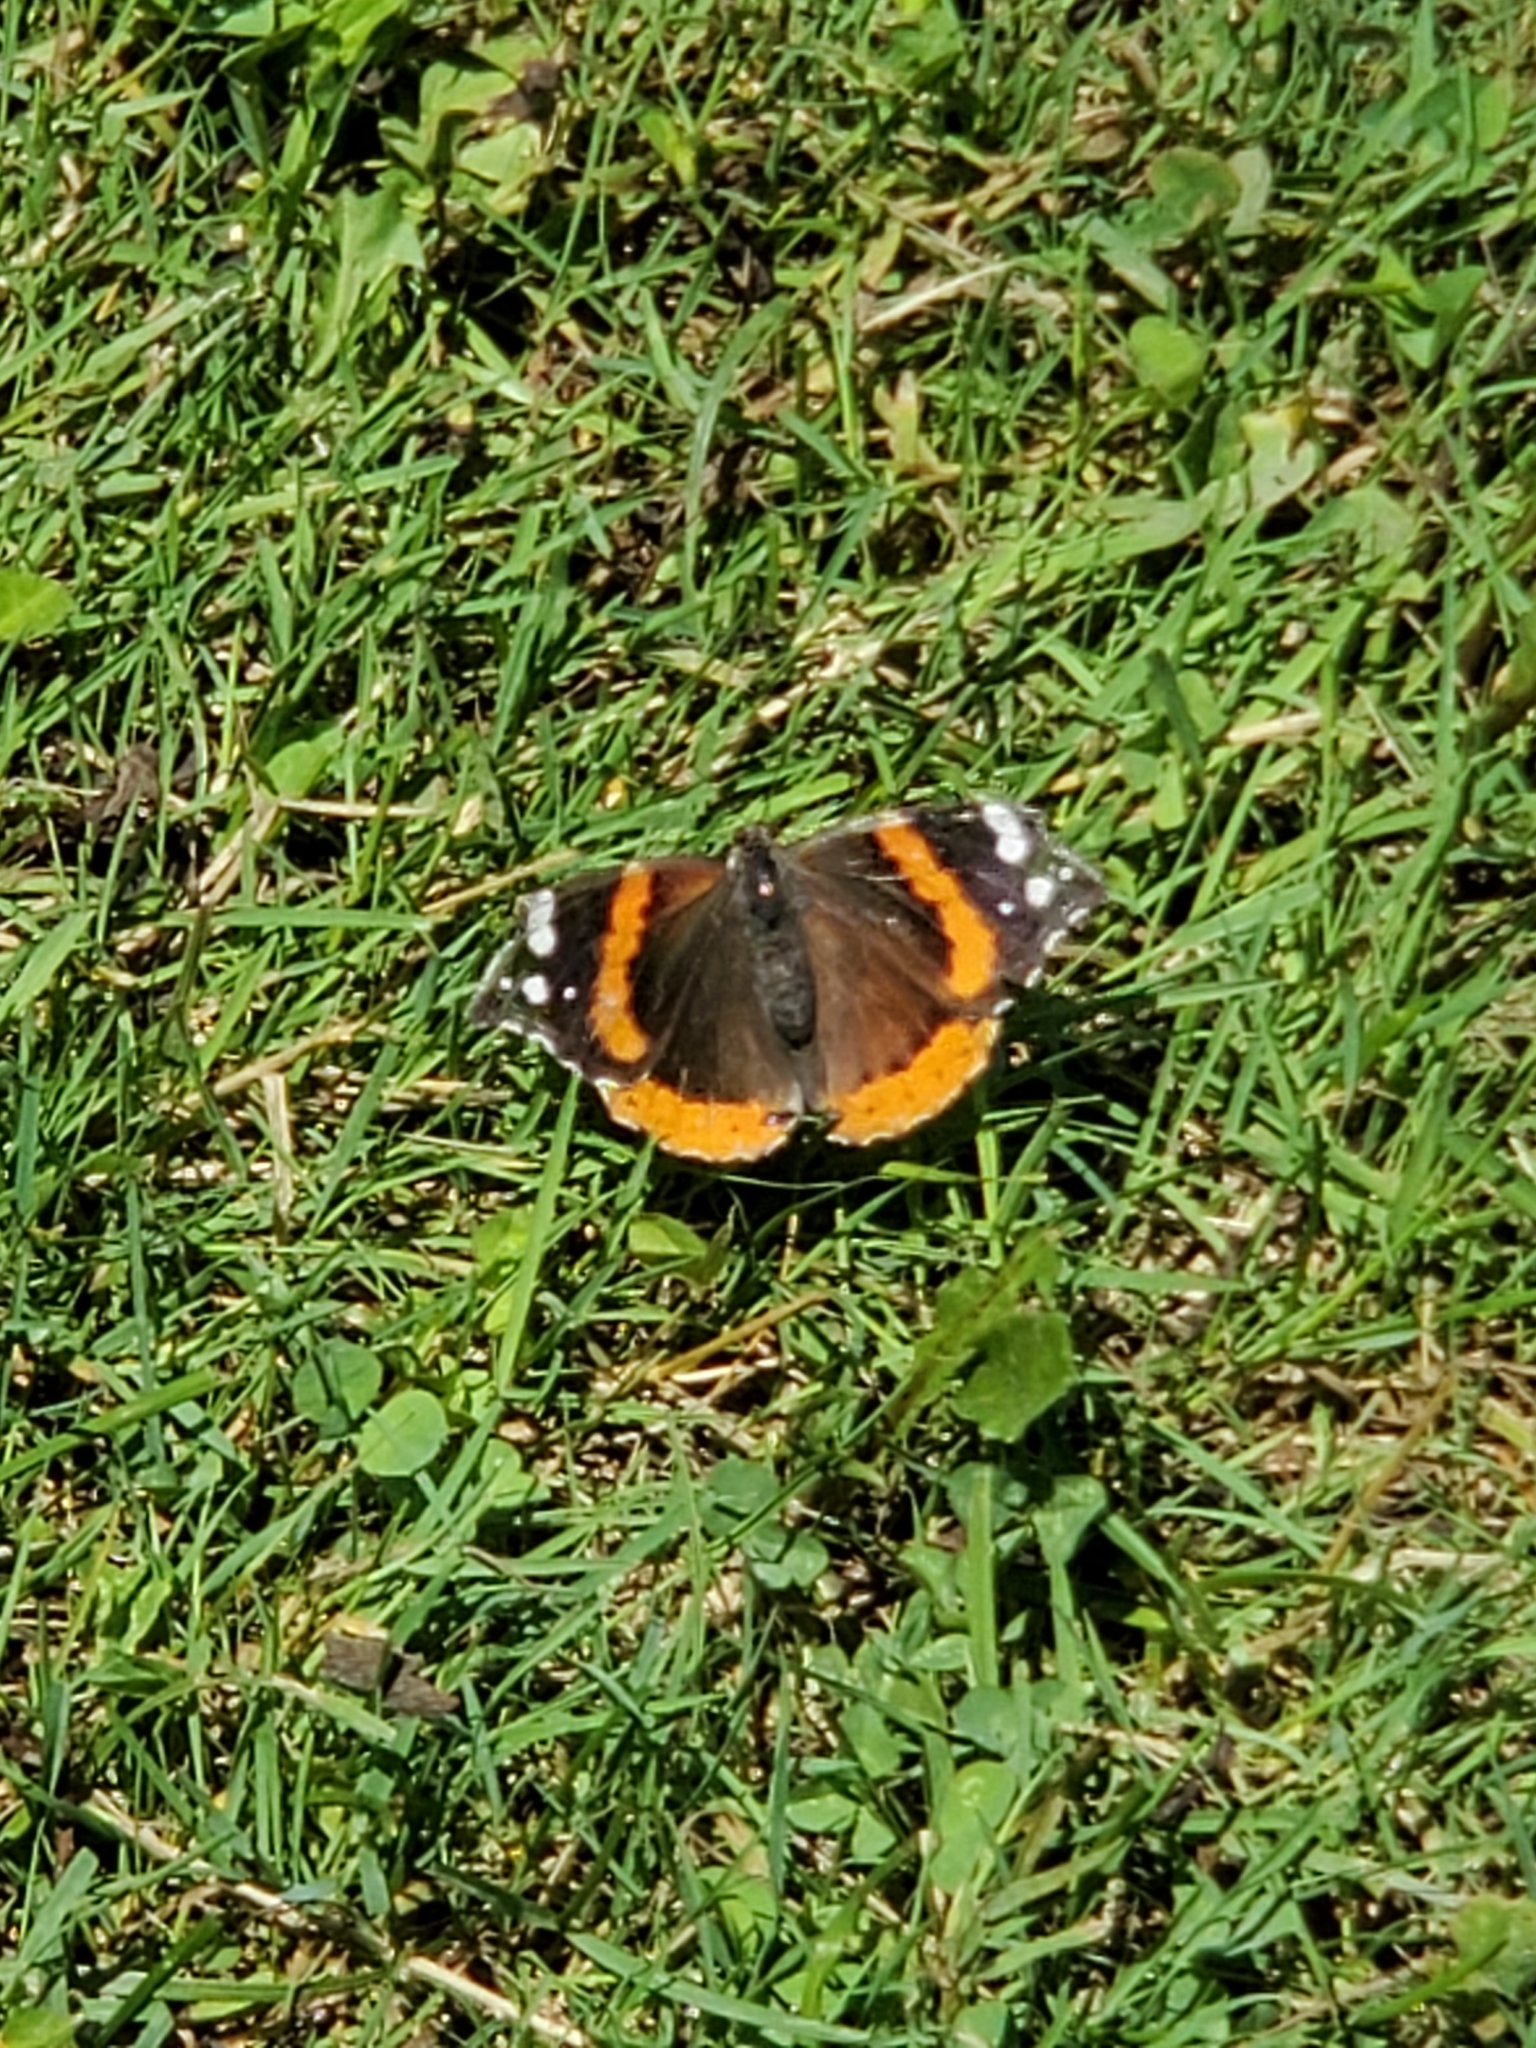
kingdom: Animalia
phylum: Arthropoda
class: Insecta
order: Lepidoptera
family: Nymphalidae
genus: Vanessa
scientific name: Vanessa atalanta
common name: Red admiral
